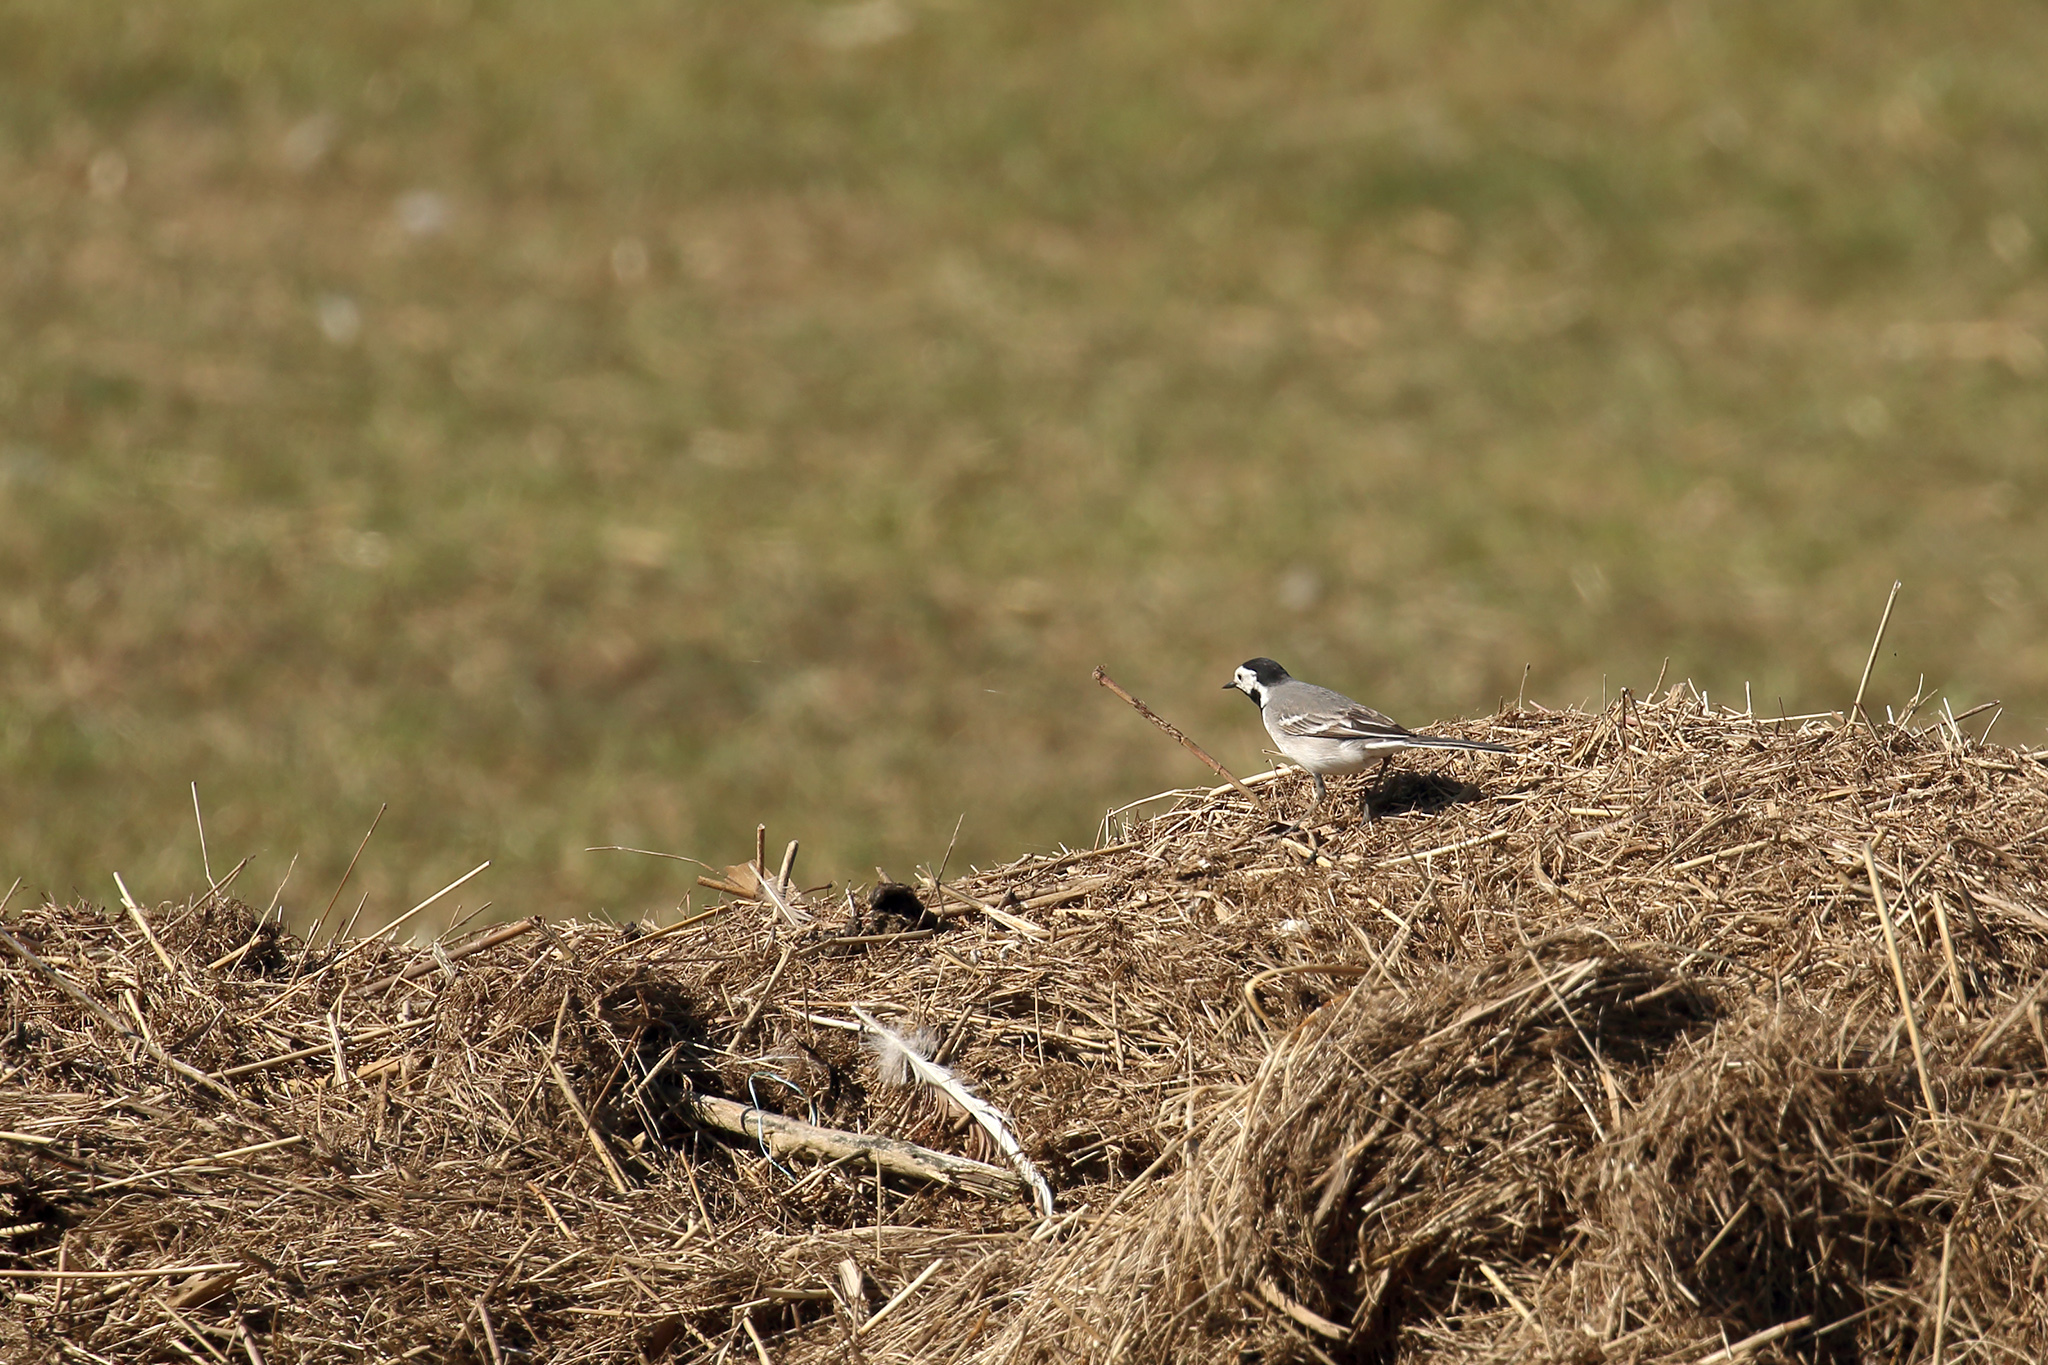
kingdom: Animalia
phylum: Chordata
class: Aves
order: Passeriformes
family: Motacillidae
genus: Motacilla
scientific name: Motacilla alba
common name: White wagtail
